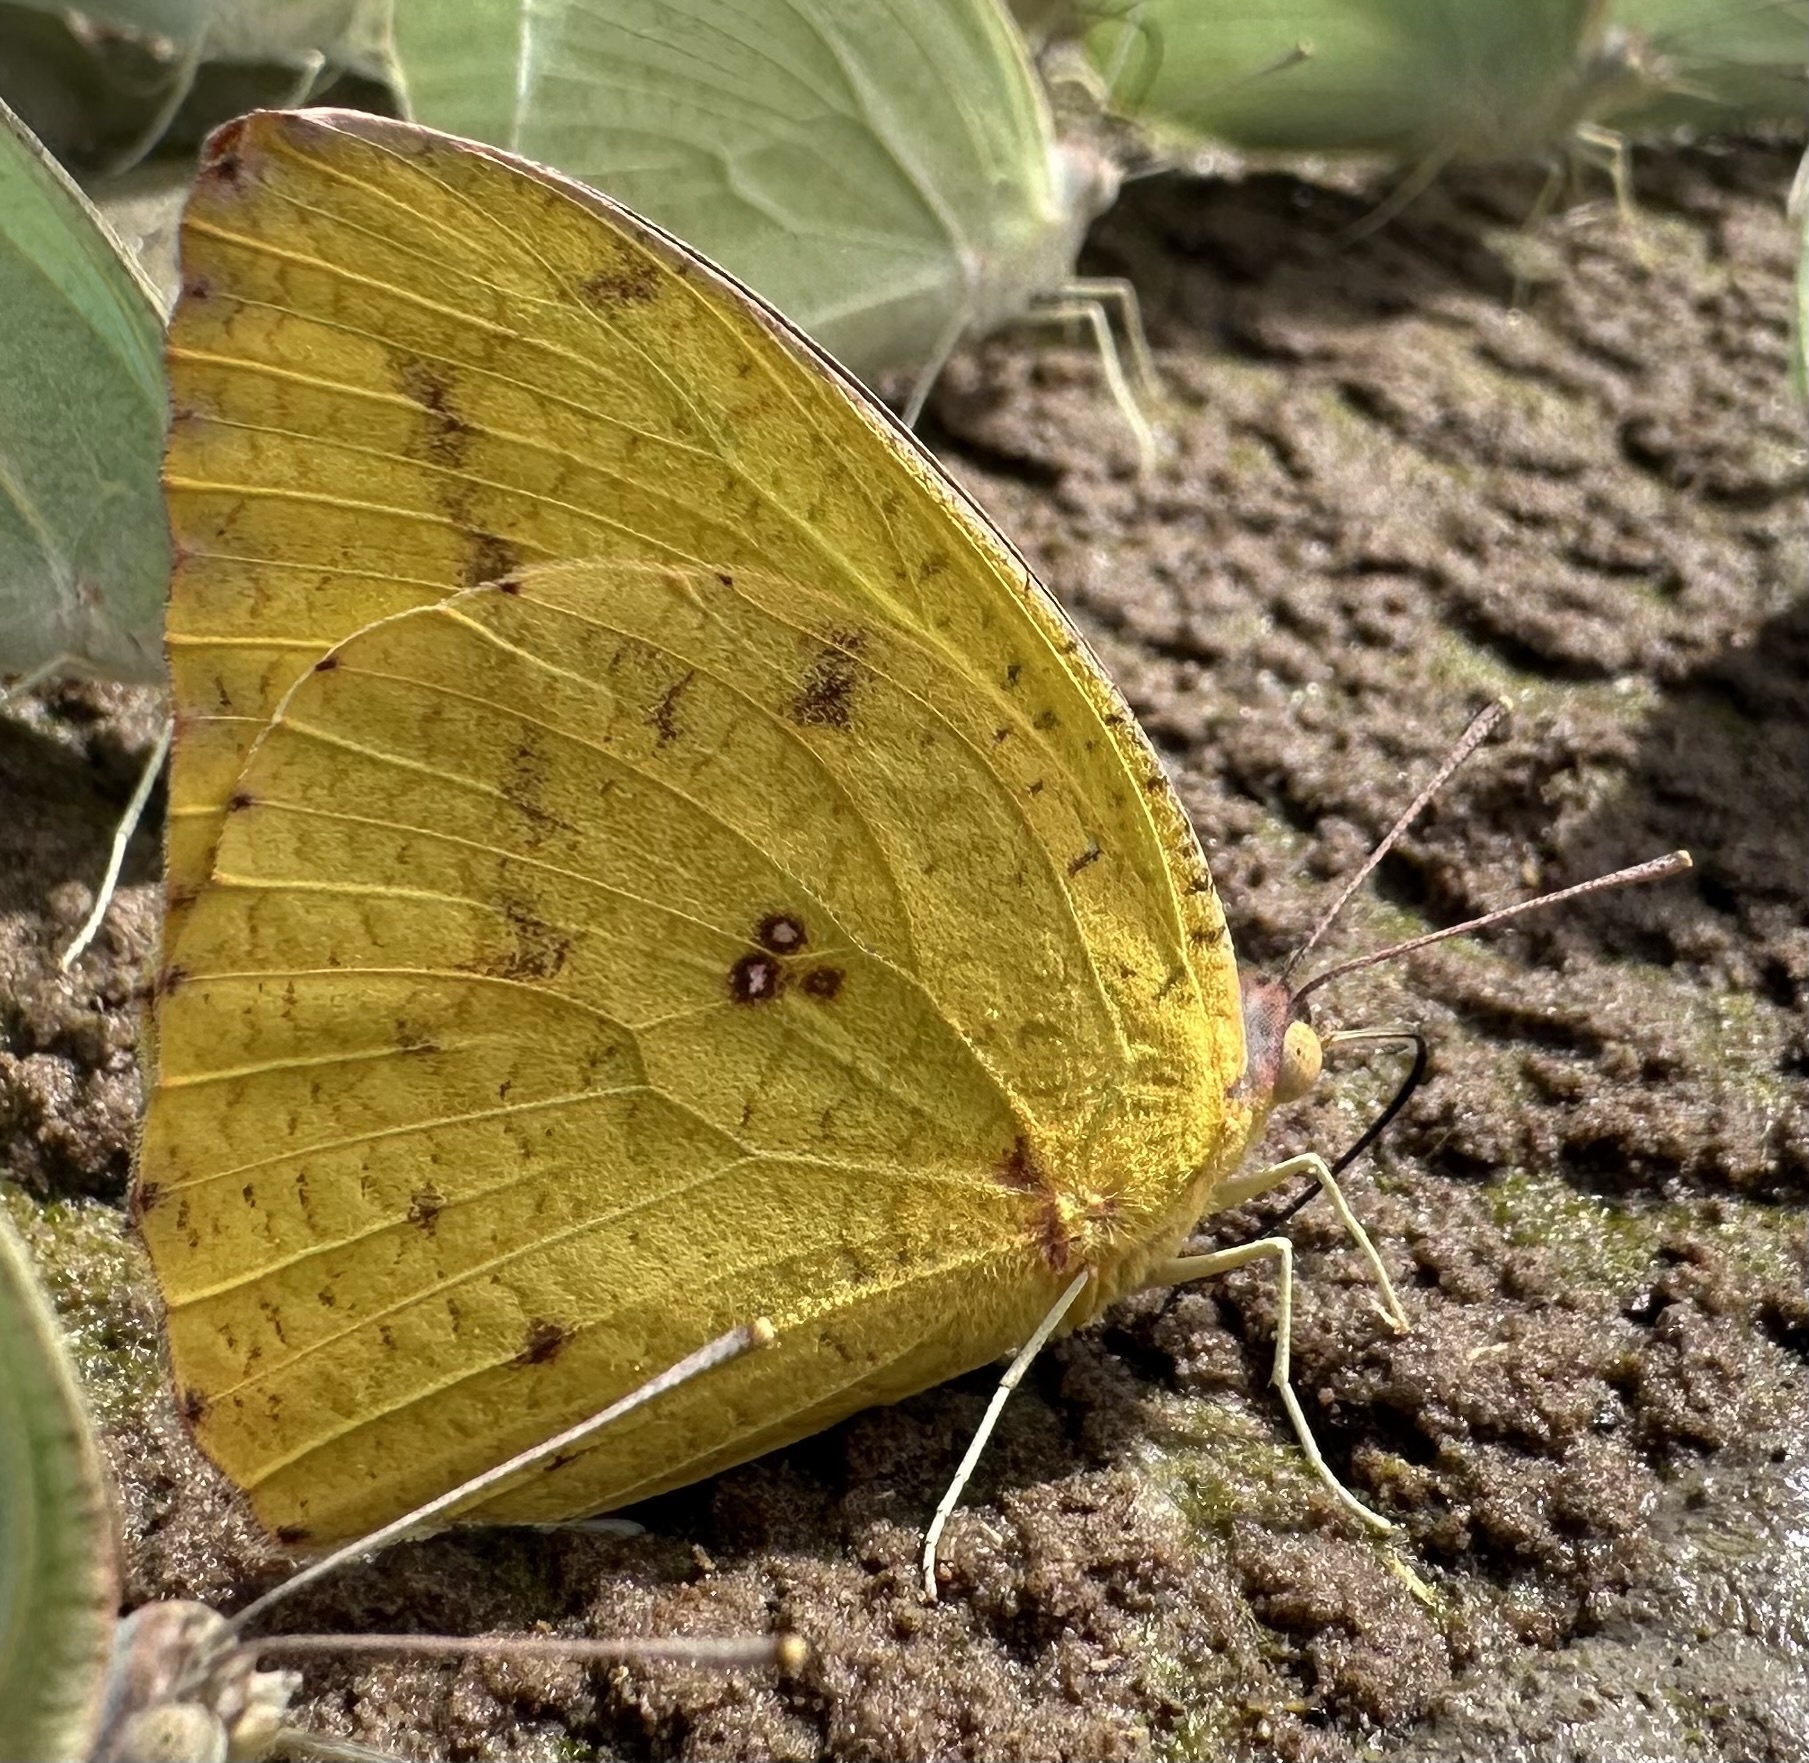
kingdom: Animalia
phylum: Arthropoda
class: Insecta
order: Lepidoptera
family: Pieridae
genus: Catopsilia
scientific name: Catopsilia florella
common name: African migrant
